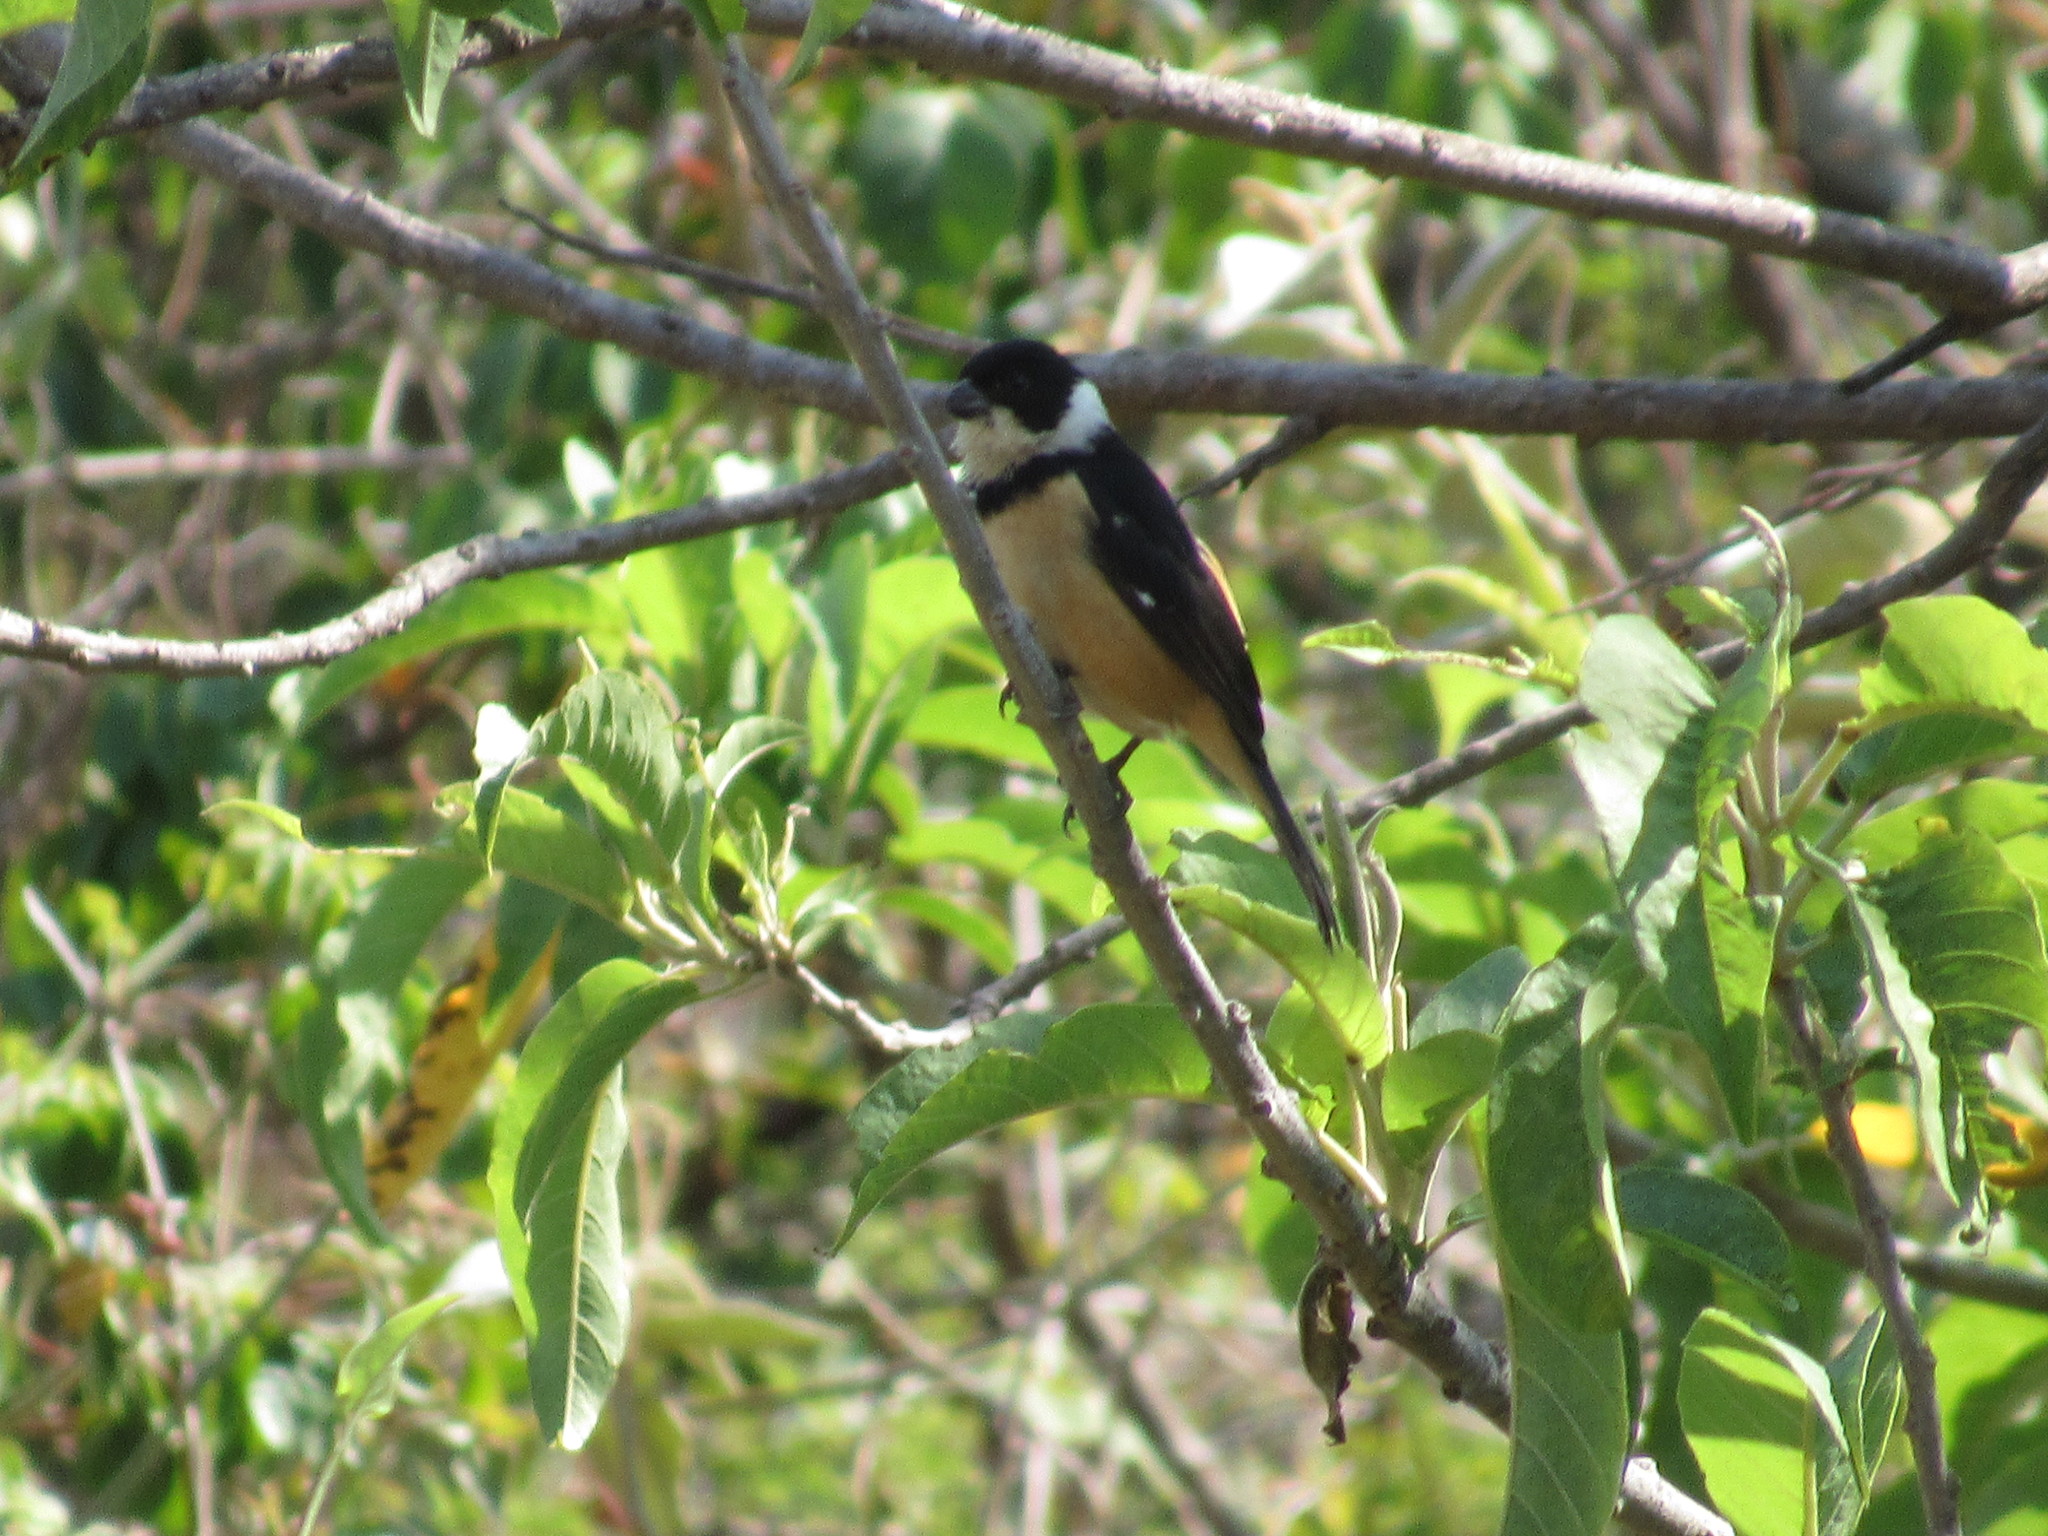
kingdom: Animalia
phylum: Chordata
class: Aves
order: Passeriformes
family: Thraupidae
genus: Sporophila
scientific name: Sporophila torqueola
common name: White-collared seedeater
